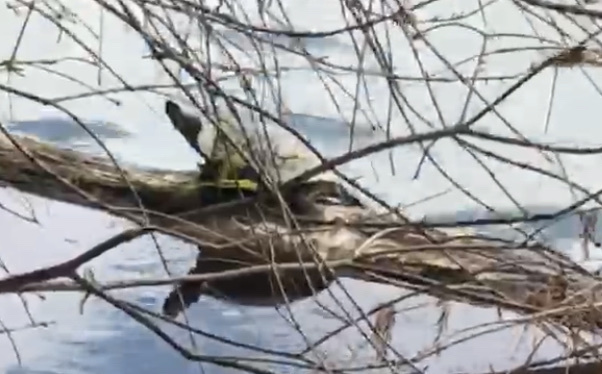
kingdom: Animalia
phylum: Chordata
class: Testudines
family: Emydidae
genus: Trachemys
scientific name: Trachemys scripta
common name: Slider
